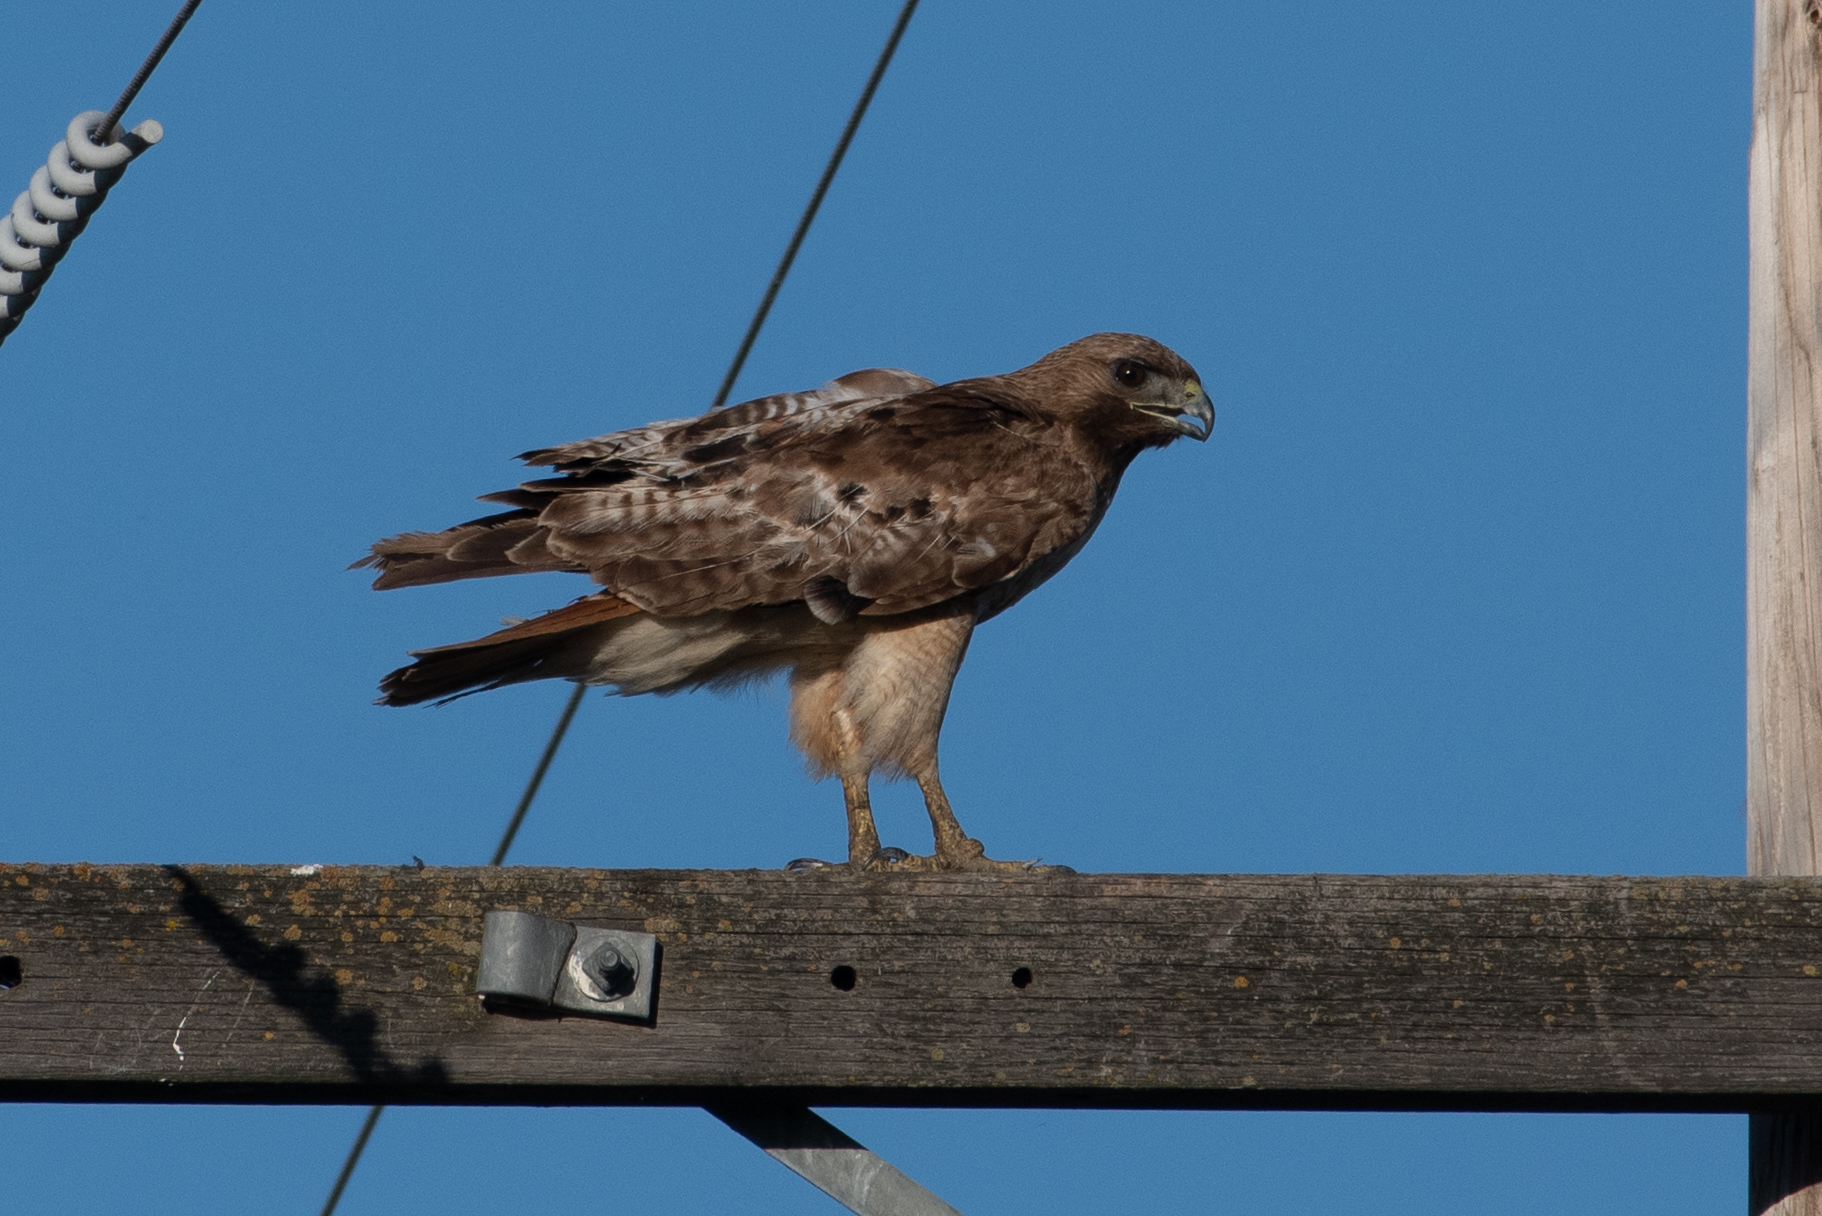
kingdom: Animalia
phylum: Chordata
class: Aves
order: Accipitriformes
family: Accipitridae
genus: Buteo
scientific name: Buteo jamaicensis
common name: Red-tailed hawk
